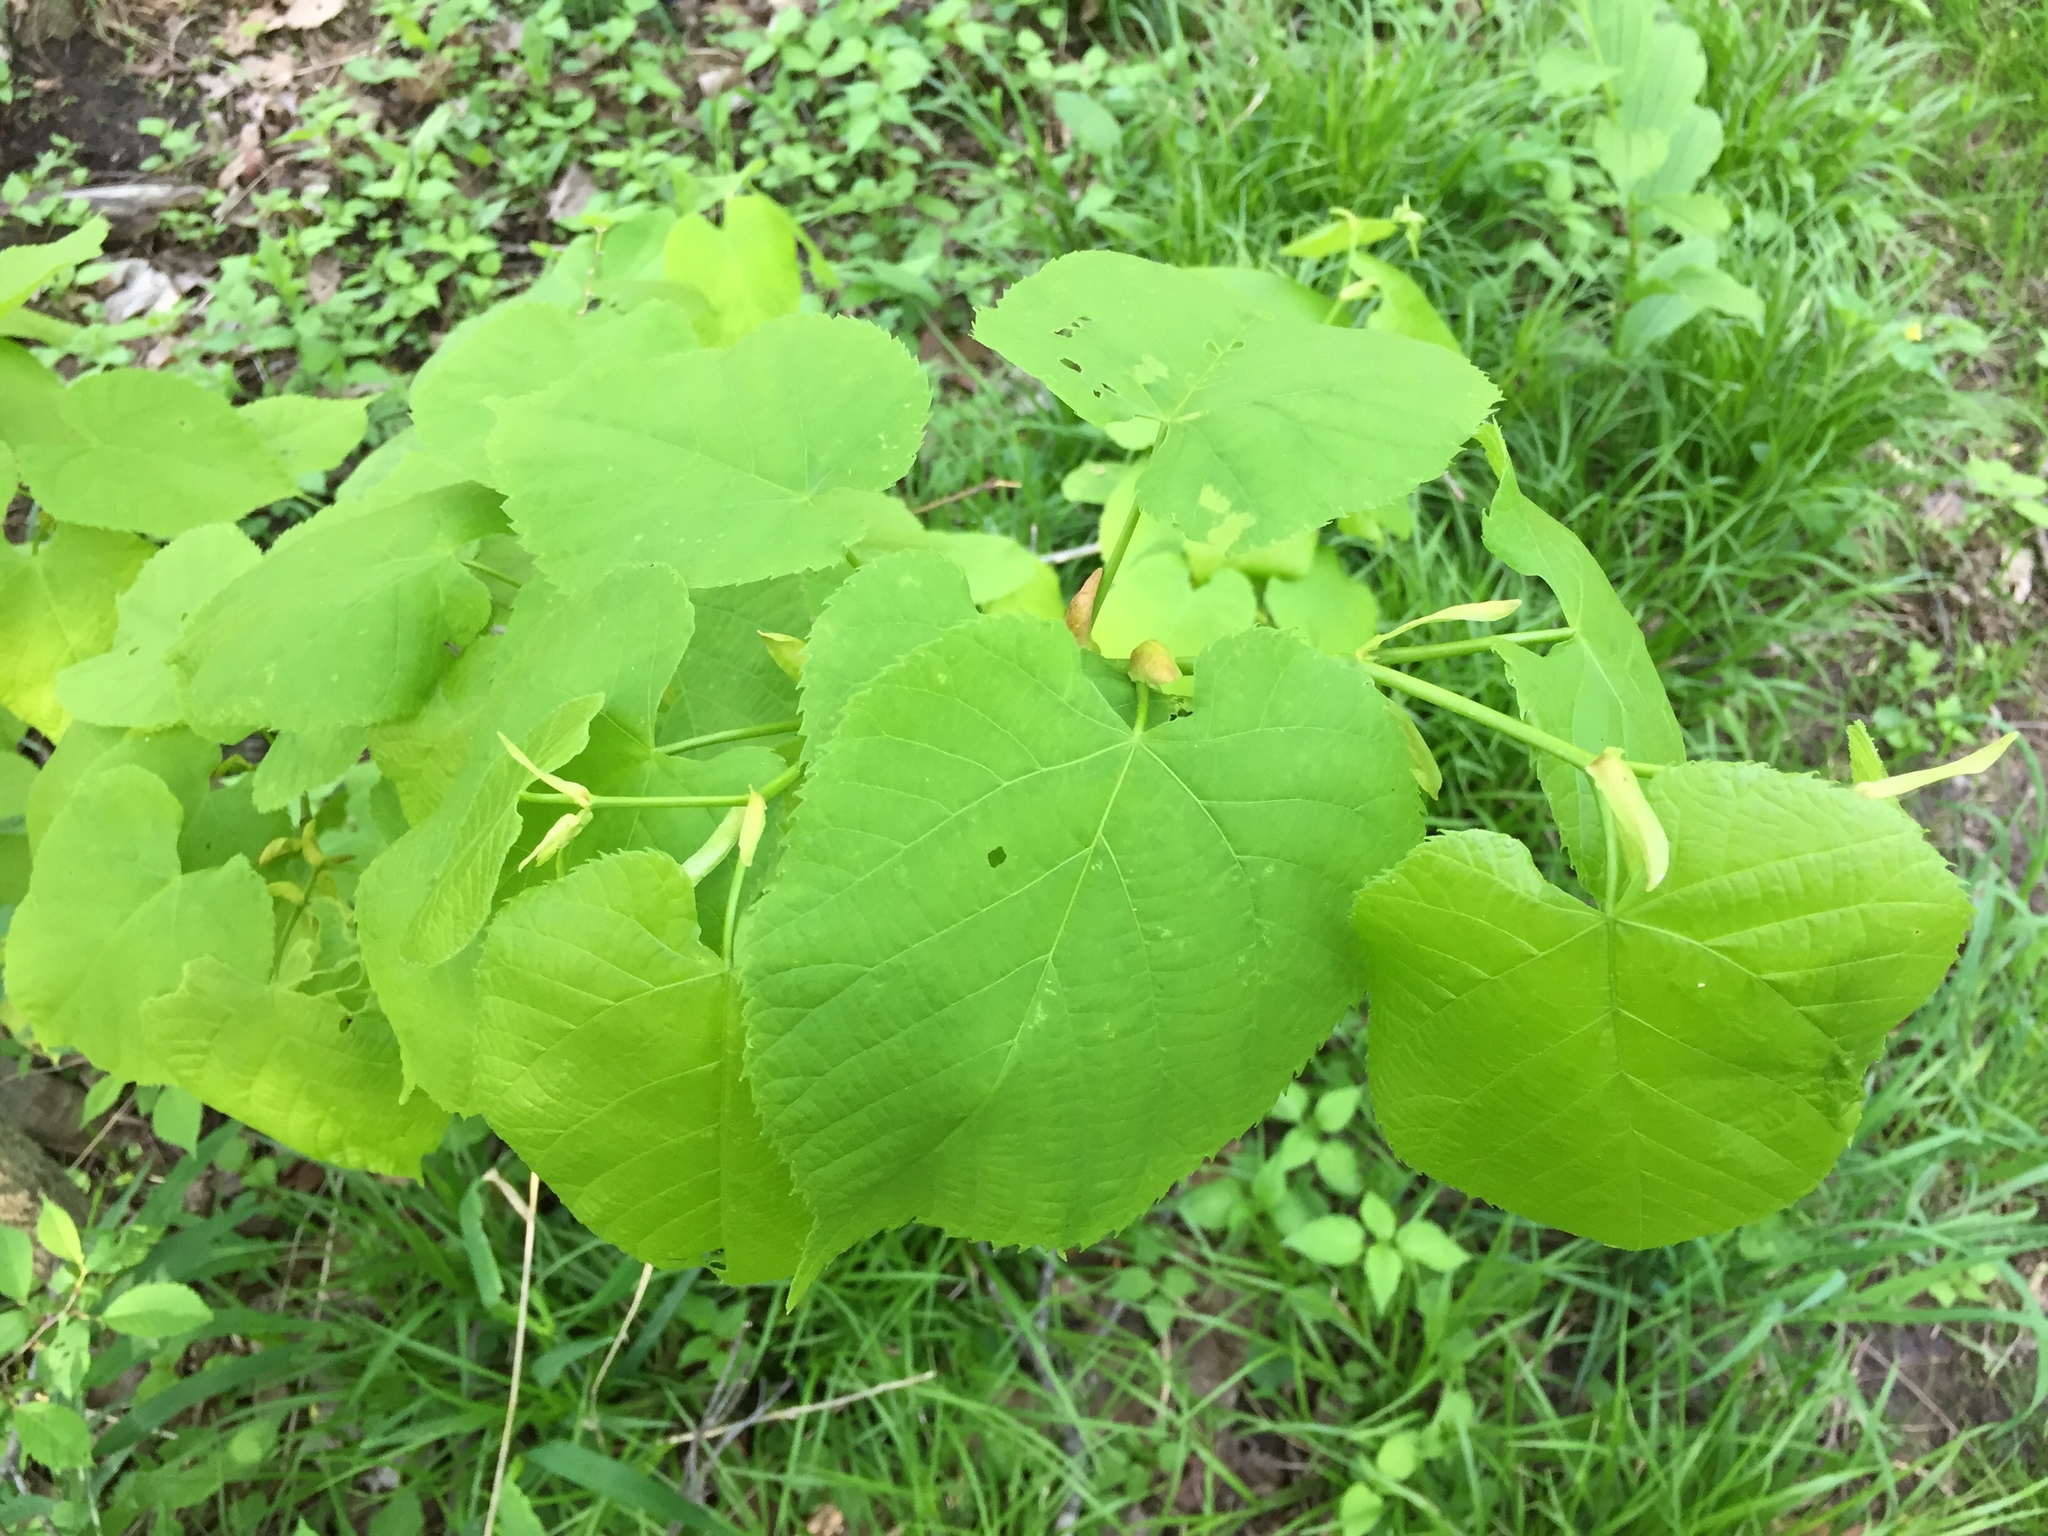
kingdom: Plantae
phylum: Tracheophyta
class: Magnoliopsida
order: Malvales
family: Malvaceae
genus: Tilia
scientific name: Tilia americana
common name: Basswood
